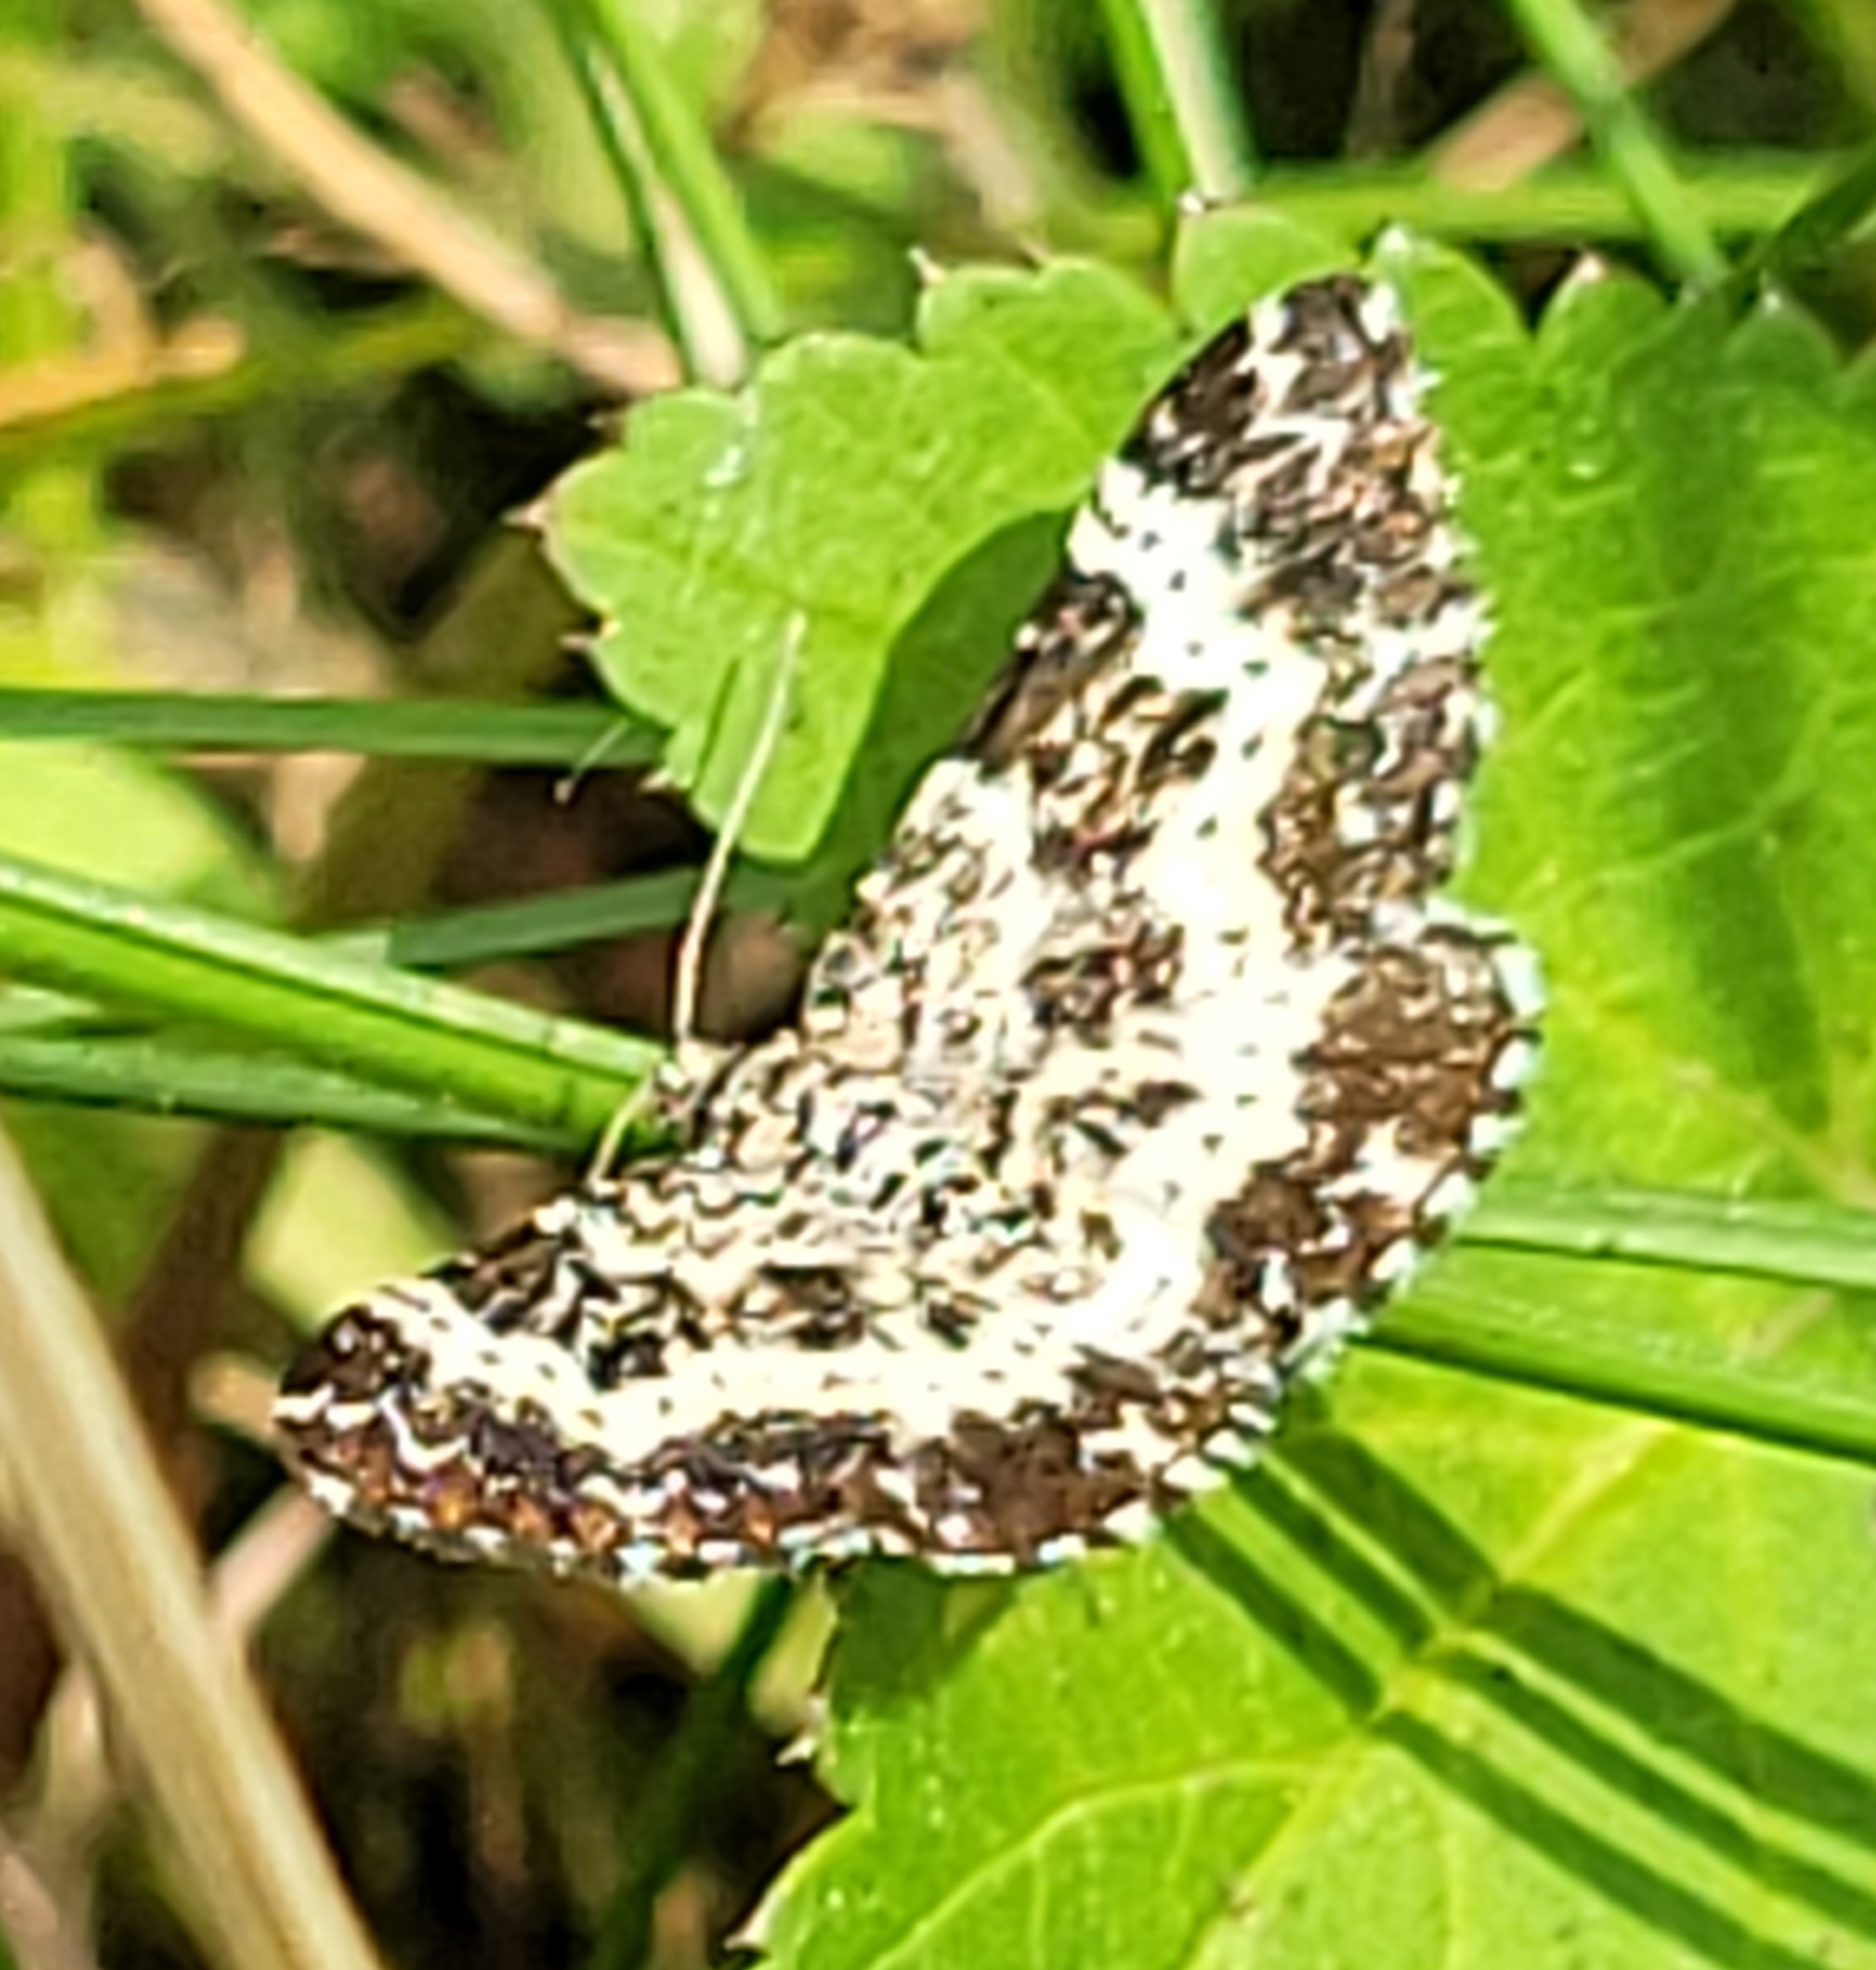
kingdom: Animalia
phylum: Arthropoda
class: Insecta
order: Lepidoptera
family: Geometridae
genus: Epirrhoe
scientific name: Epirrhoe tristata
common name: Small argent & sable
